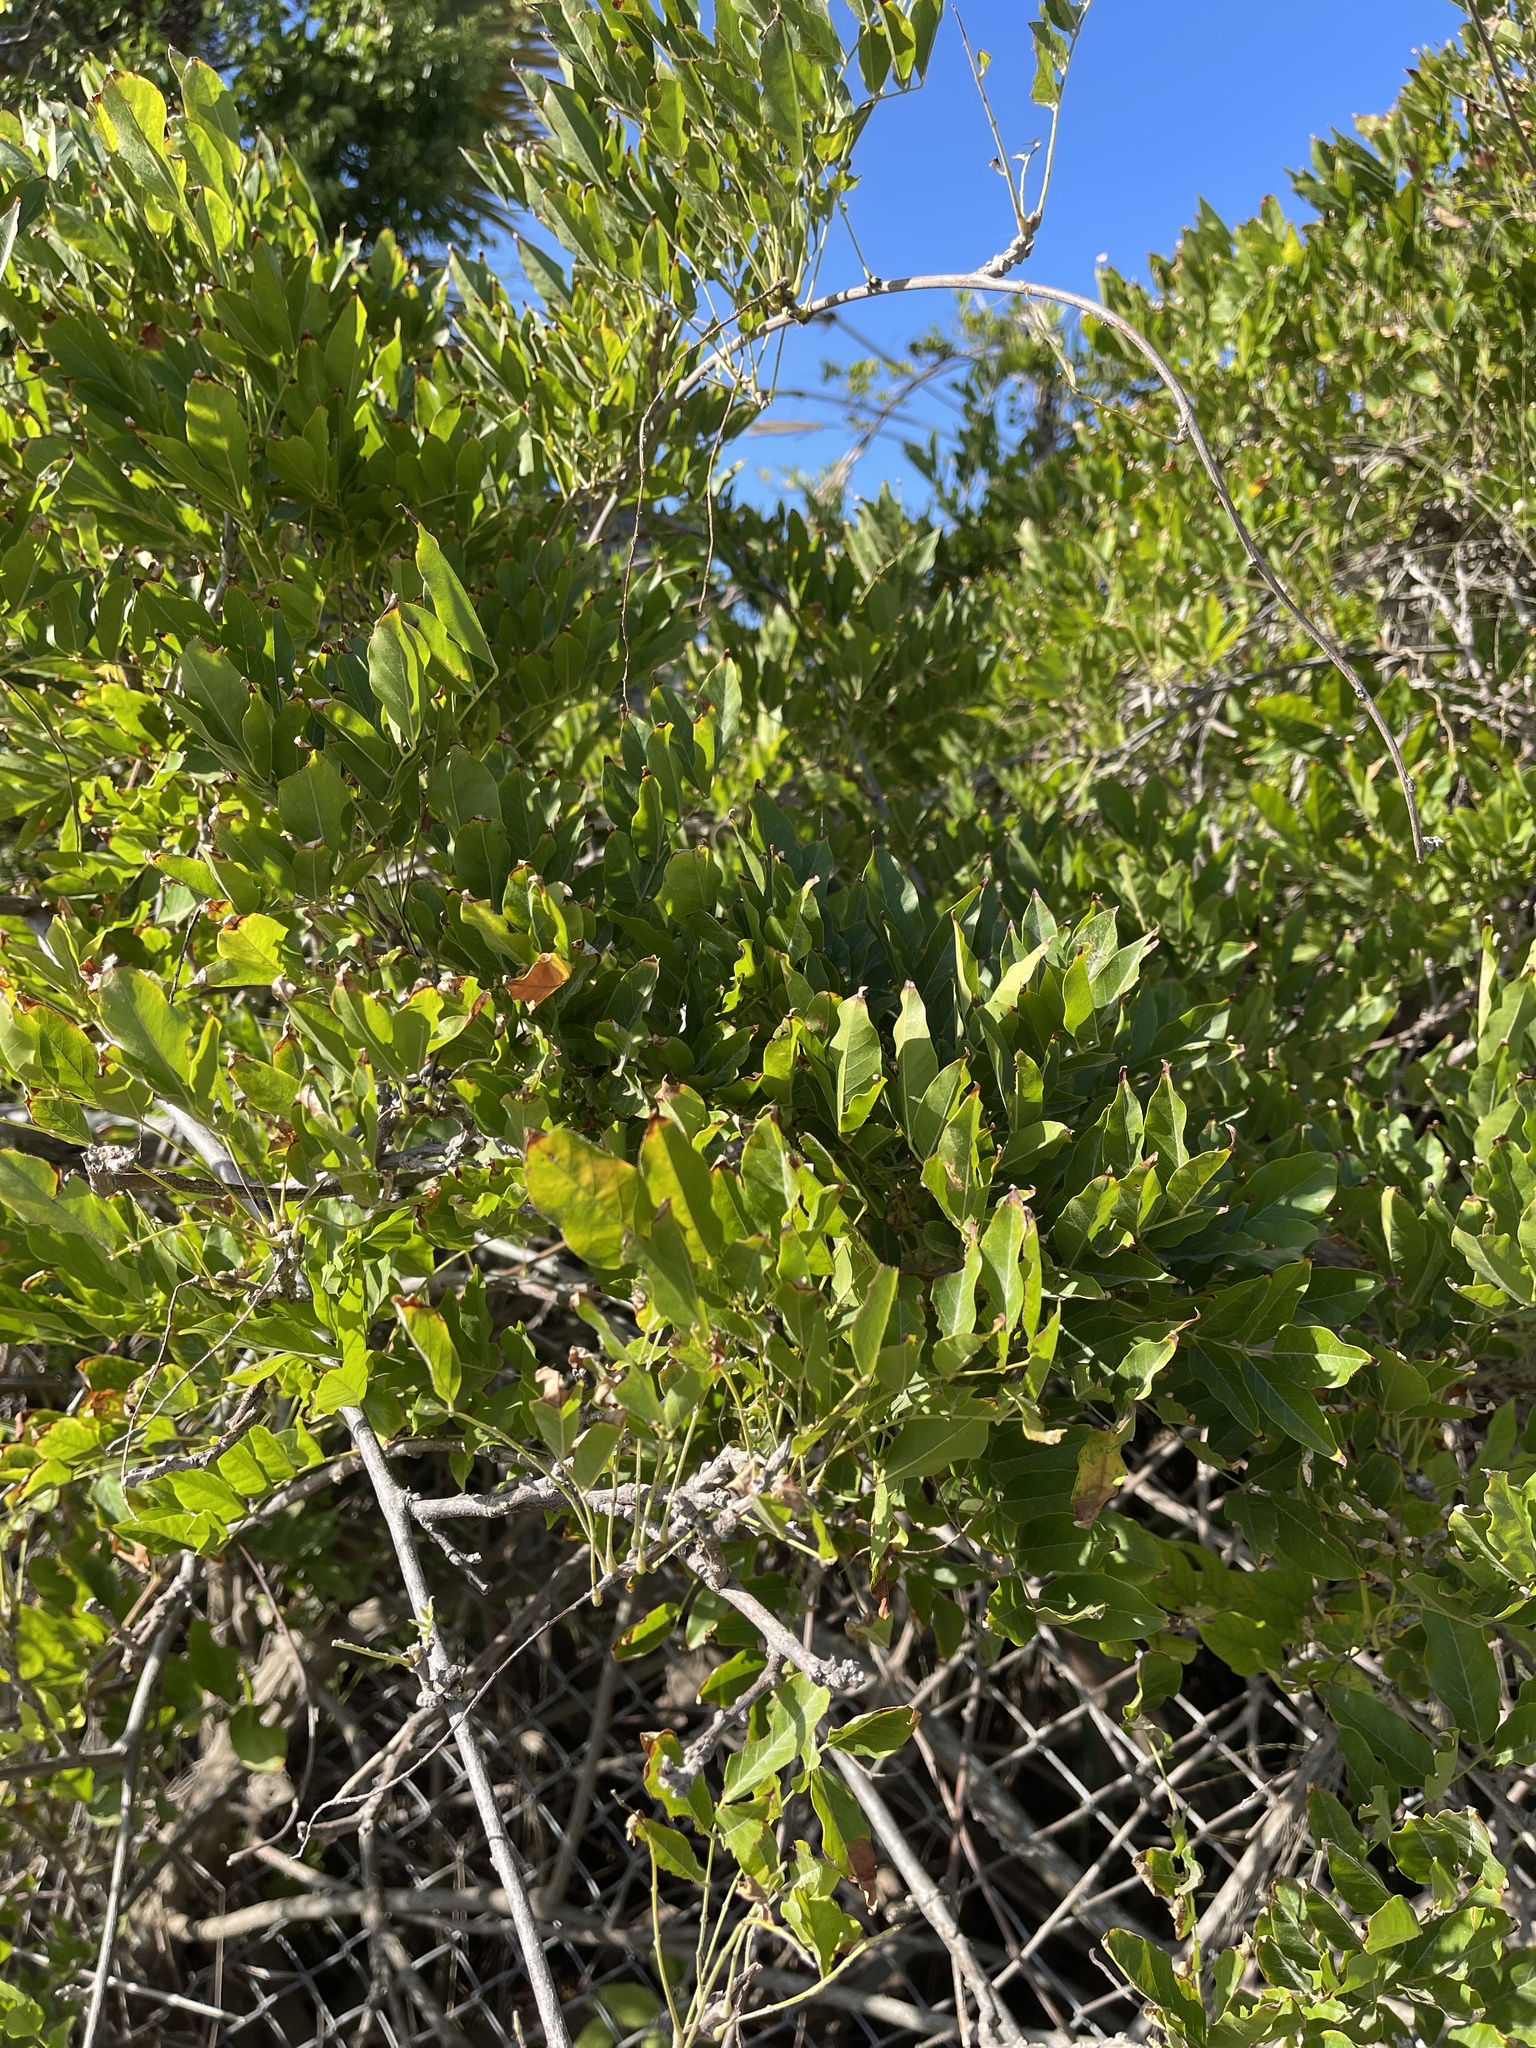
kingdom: Plantae
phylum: Tracheophyta
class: Magnoliopsida
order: Sapindales
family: Anacardiaceae
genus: Schinus
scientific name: Schinus terebinthifolia
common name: Brazilian peppertree
